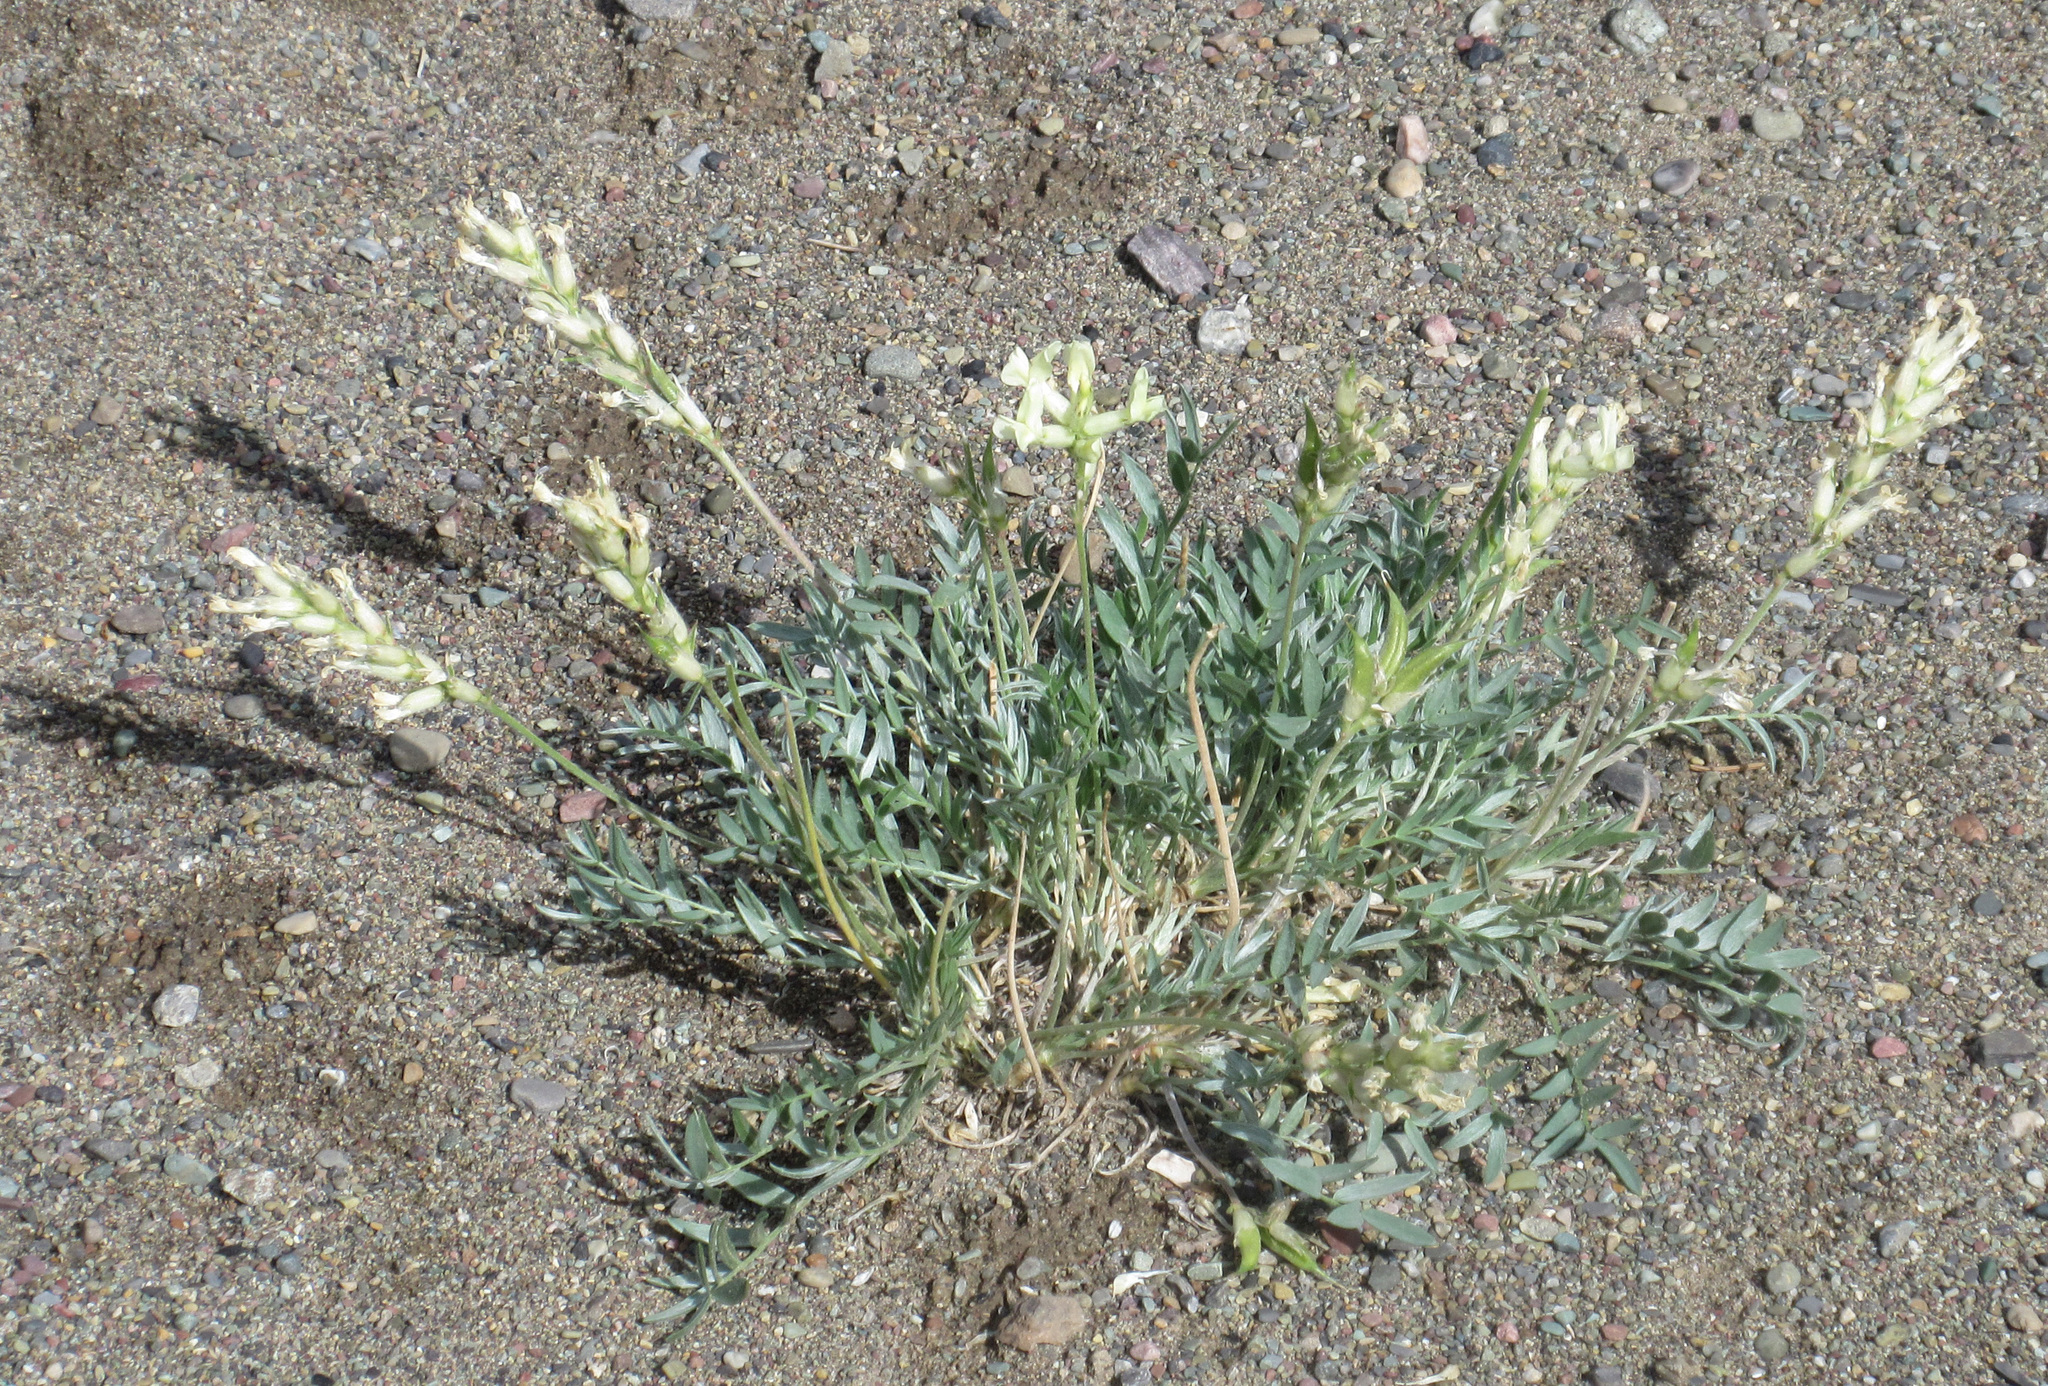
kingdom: Plantae
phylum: Tracheophyta
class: Magnoliopsida
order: Fabales
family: Fabaceae
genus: Oxytropis
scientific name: Oxytropis sericea
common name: Silky locoweed
